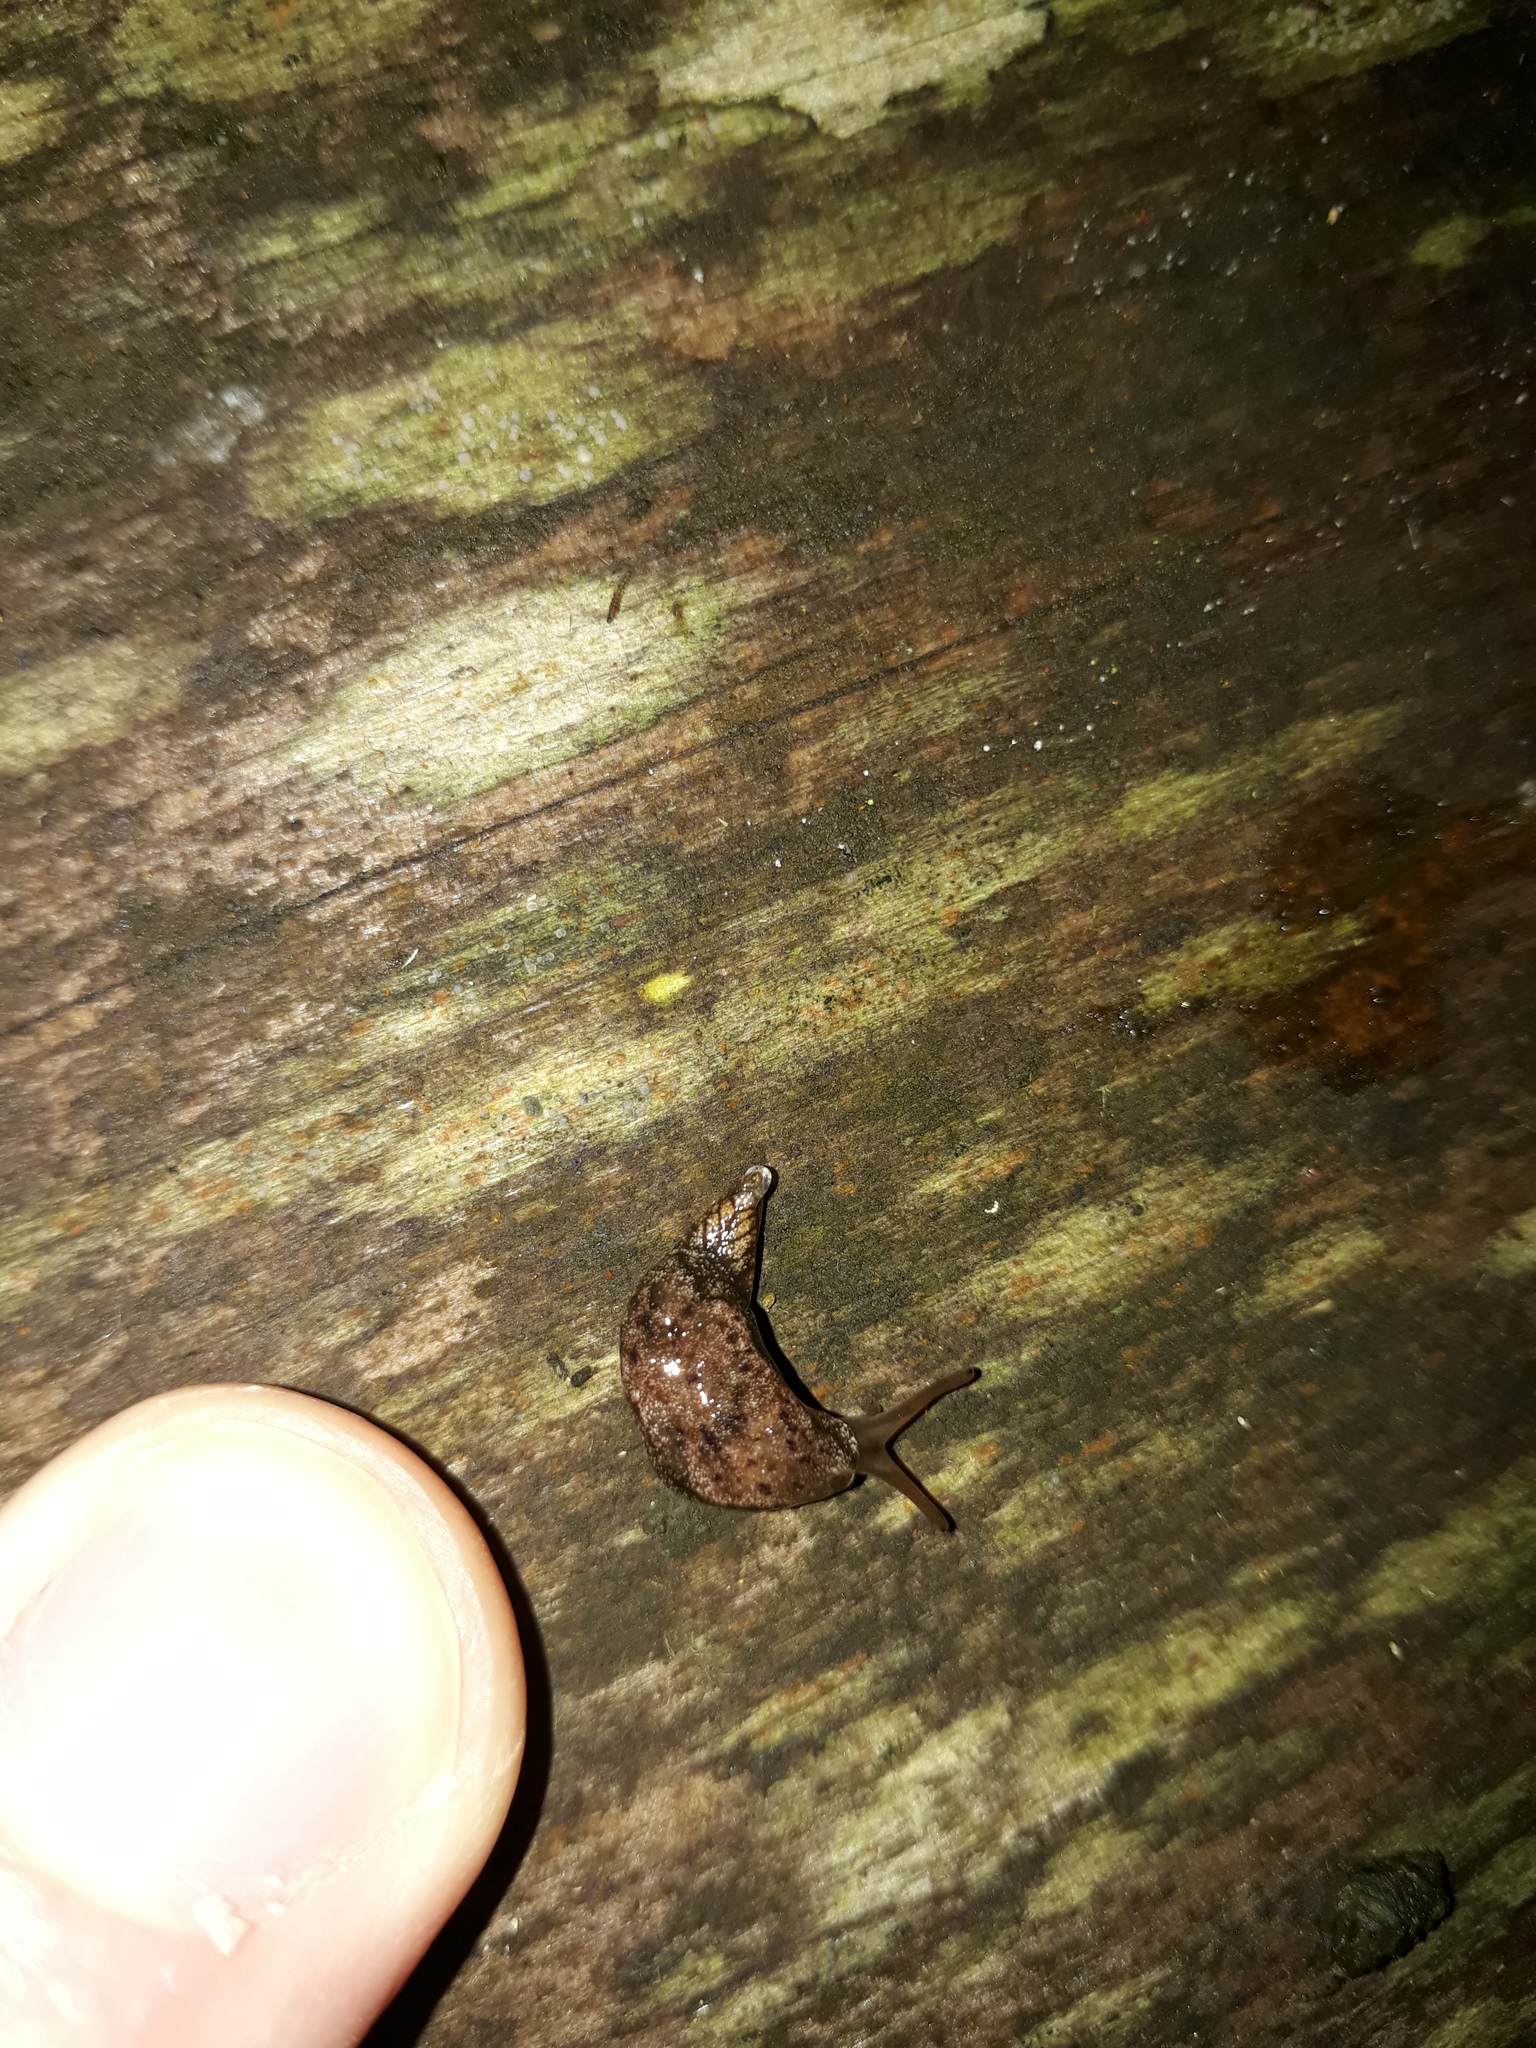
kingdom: Animalia
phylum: Mollusca
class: Gastropoda
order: Stylommatophora
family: Cystopeltidae
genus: Cystopelta
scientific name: Cystopelta purpurea
